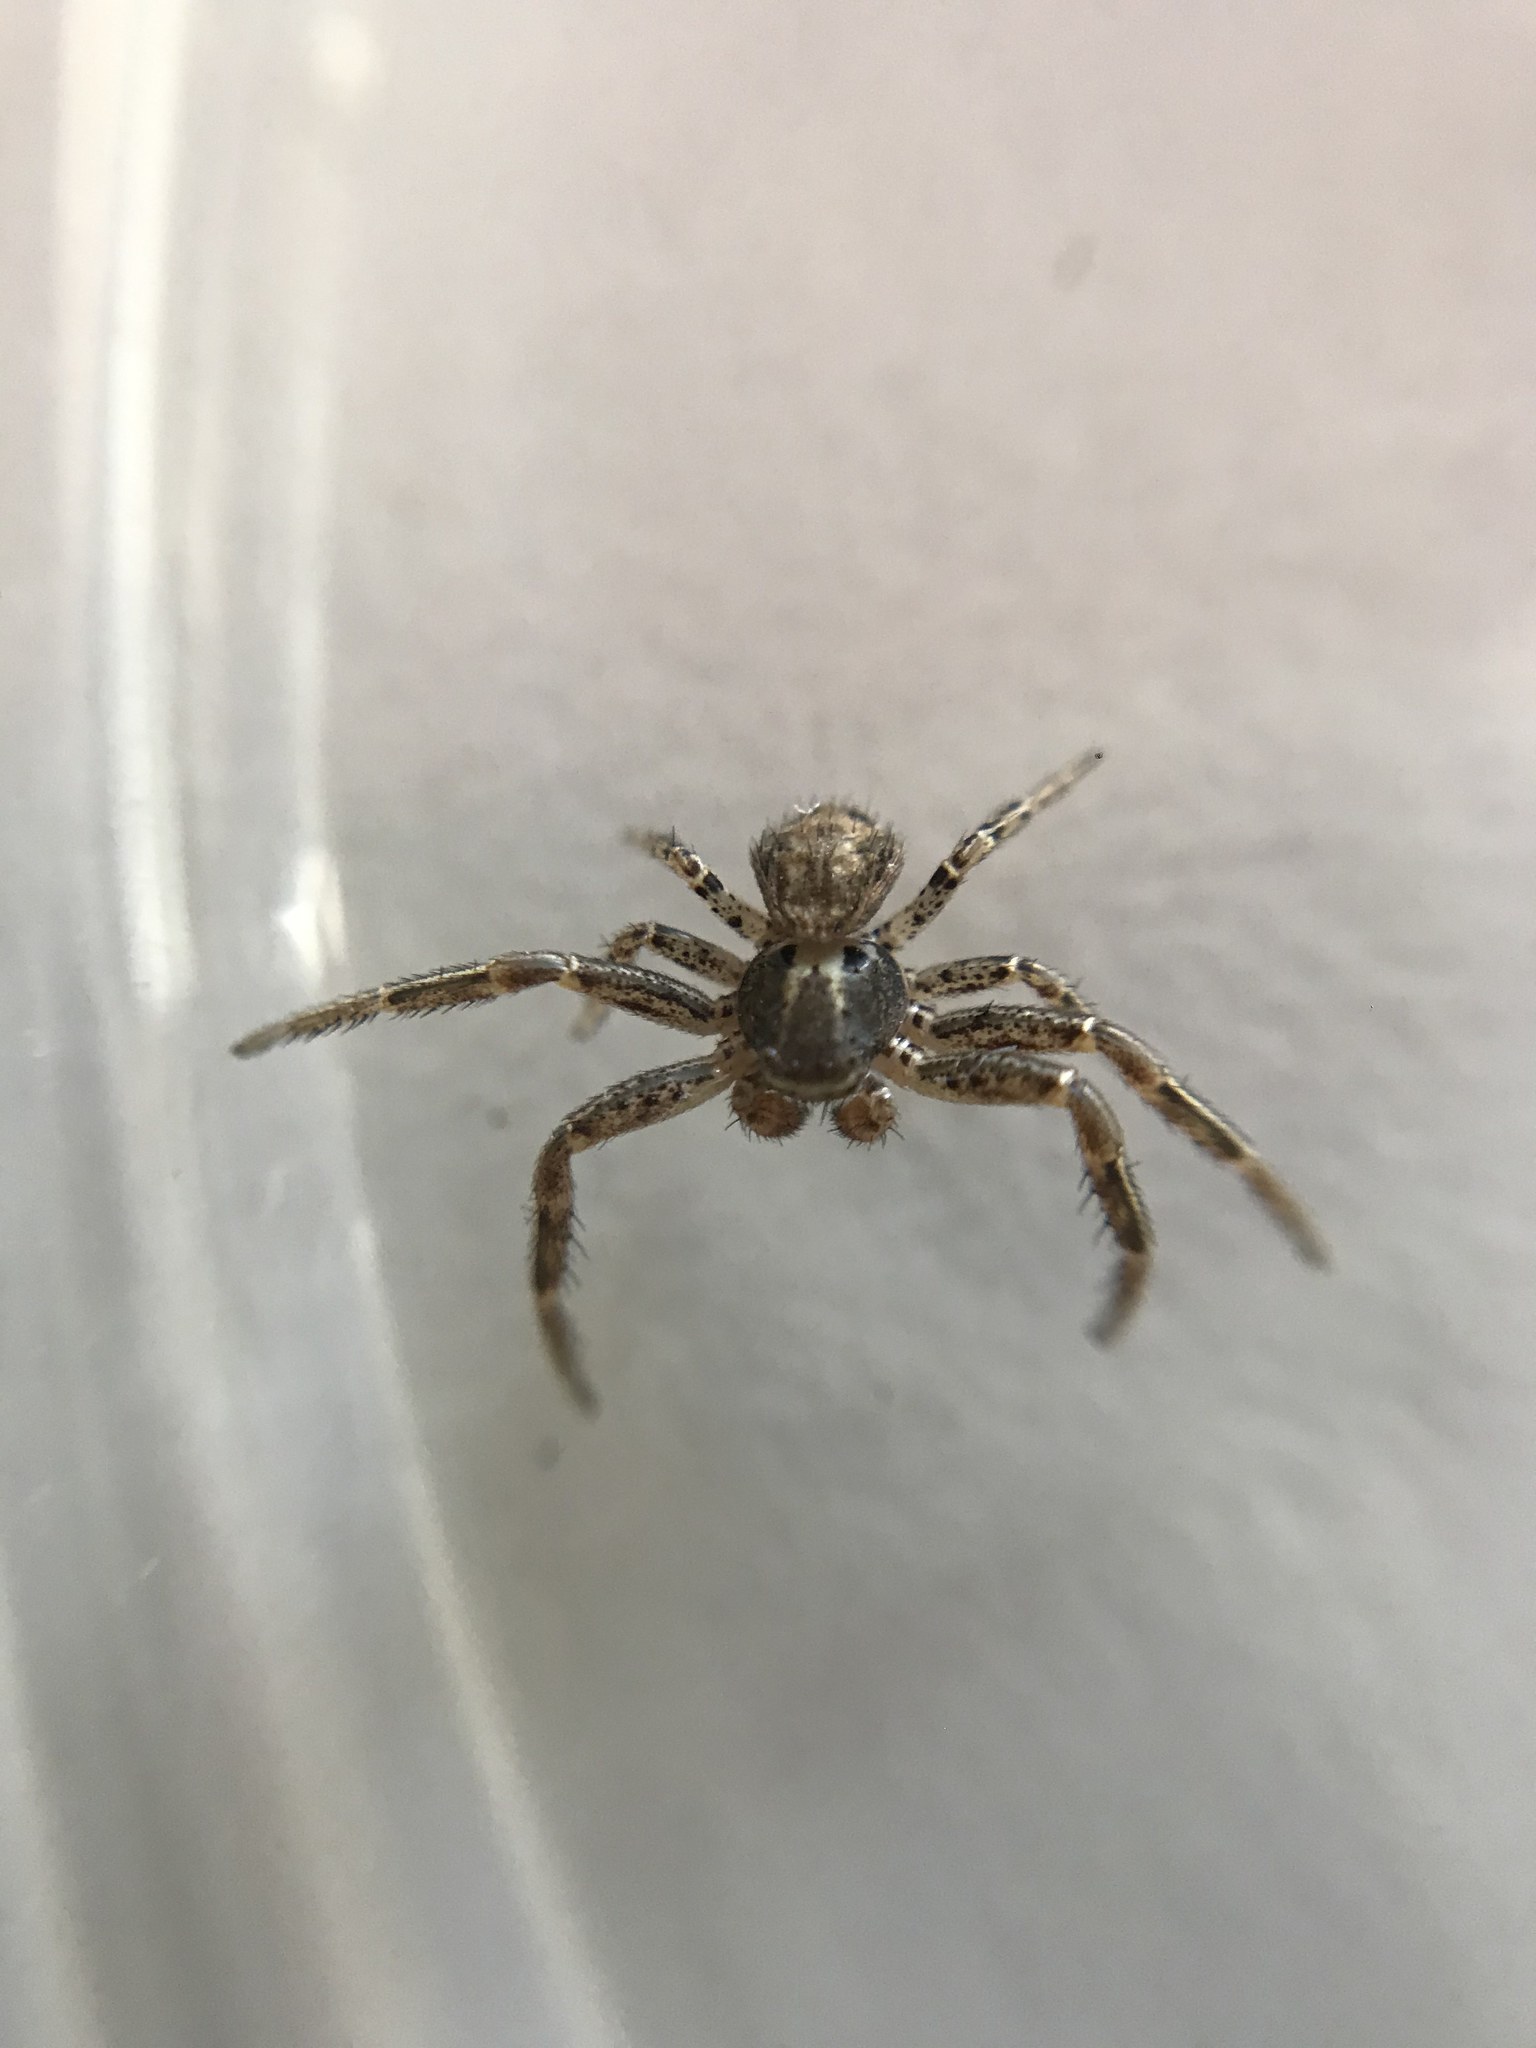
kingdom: Animalia
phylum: Arthropoda
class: Arachnida
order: Araneae
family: Thomisidae
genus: Xysticus
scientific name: Xysticus
